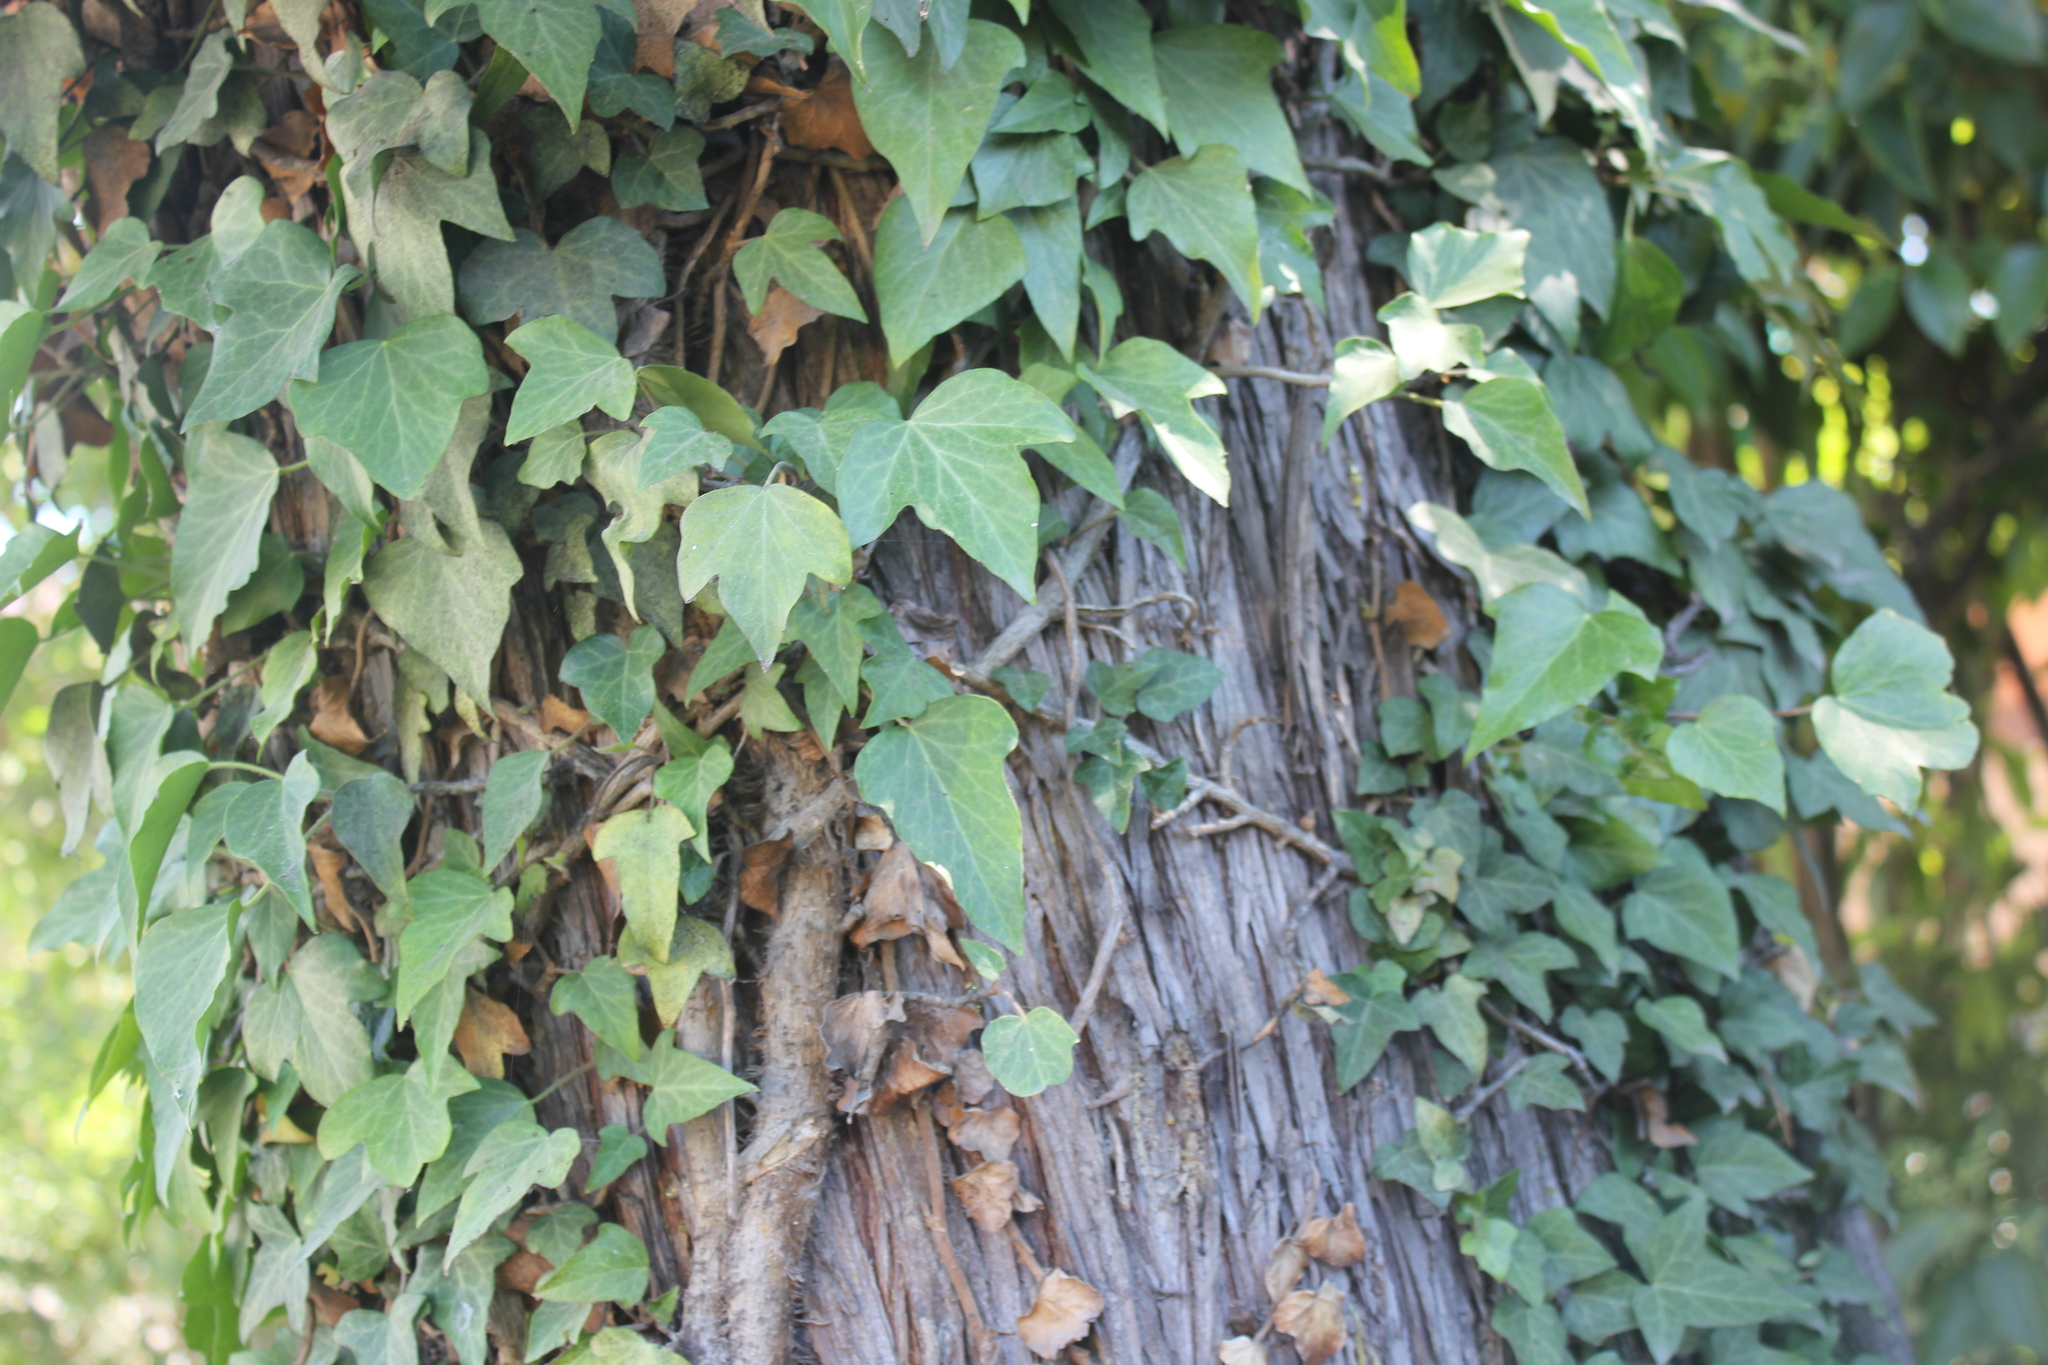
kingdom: Plantae
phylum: Tracheophyta
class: Magnoliopsida
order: Apiales
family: Araliaceae
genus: Hedera
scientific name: Hedera helix
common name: Ivy
